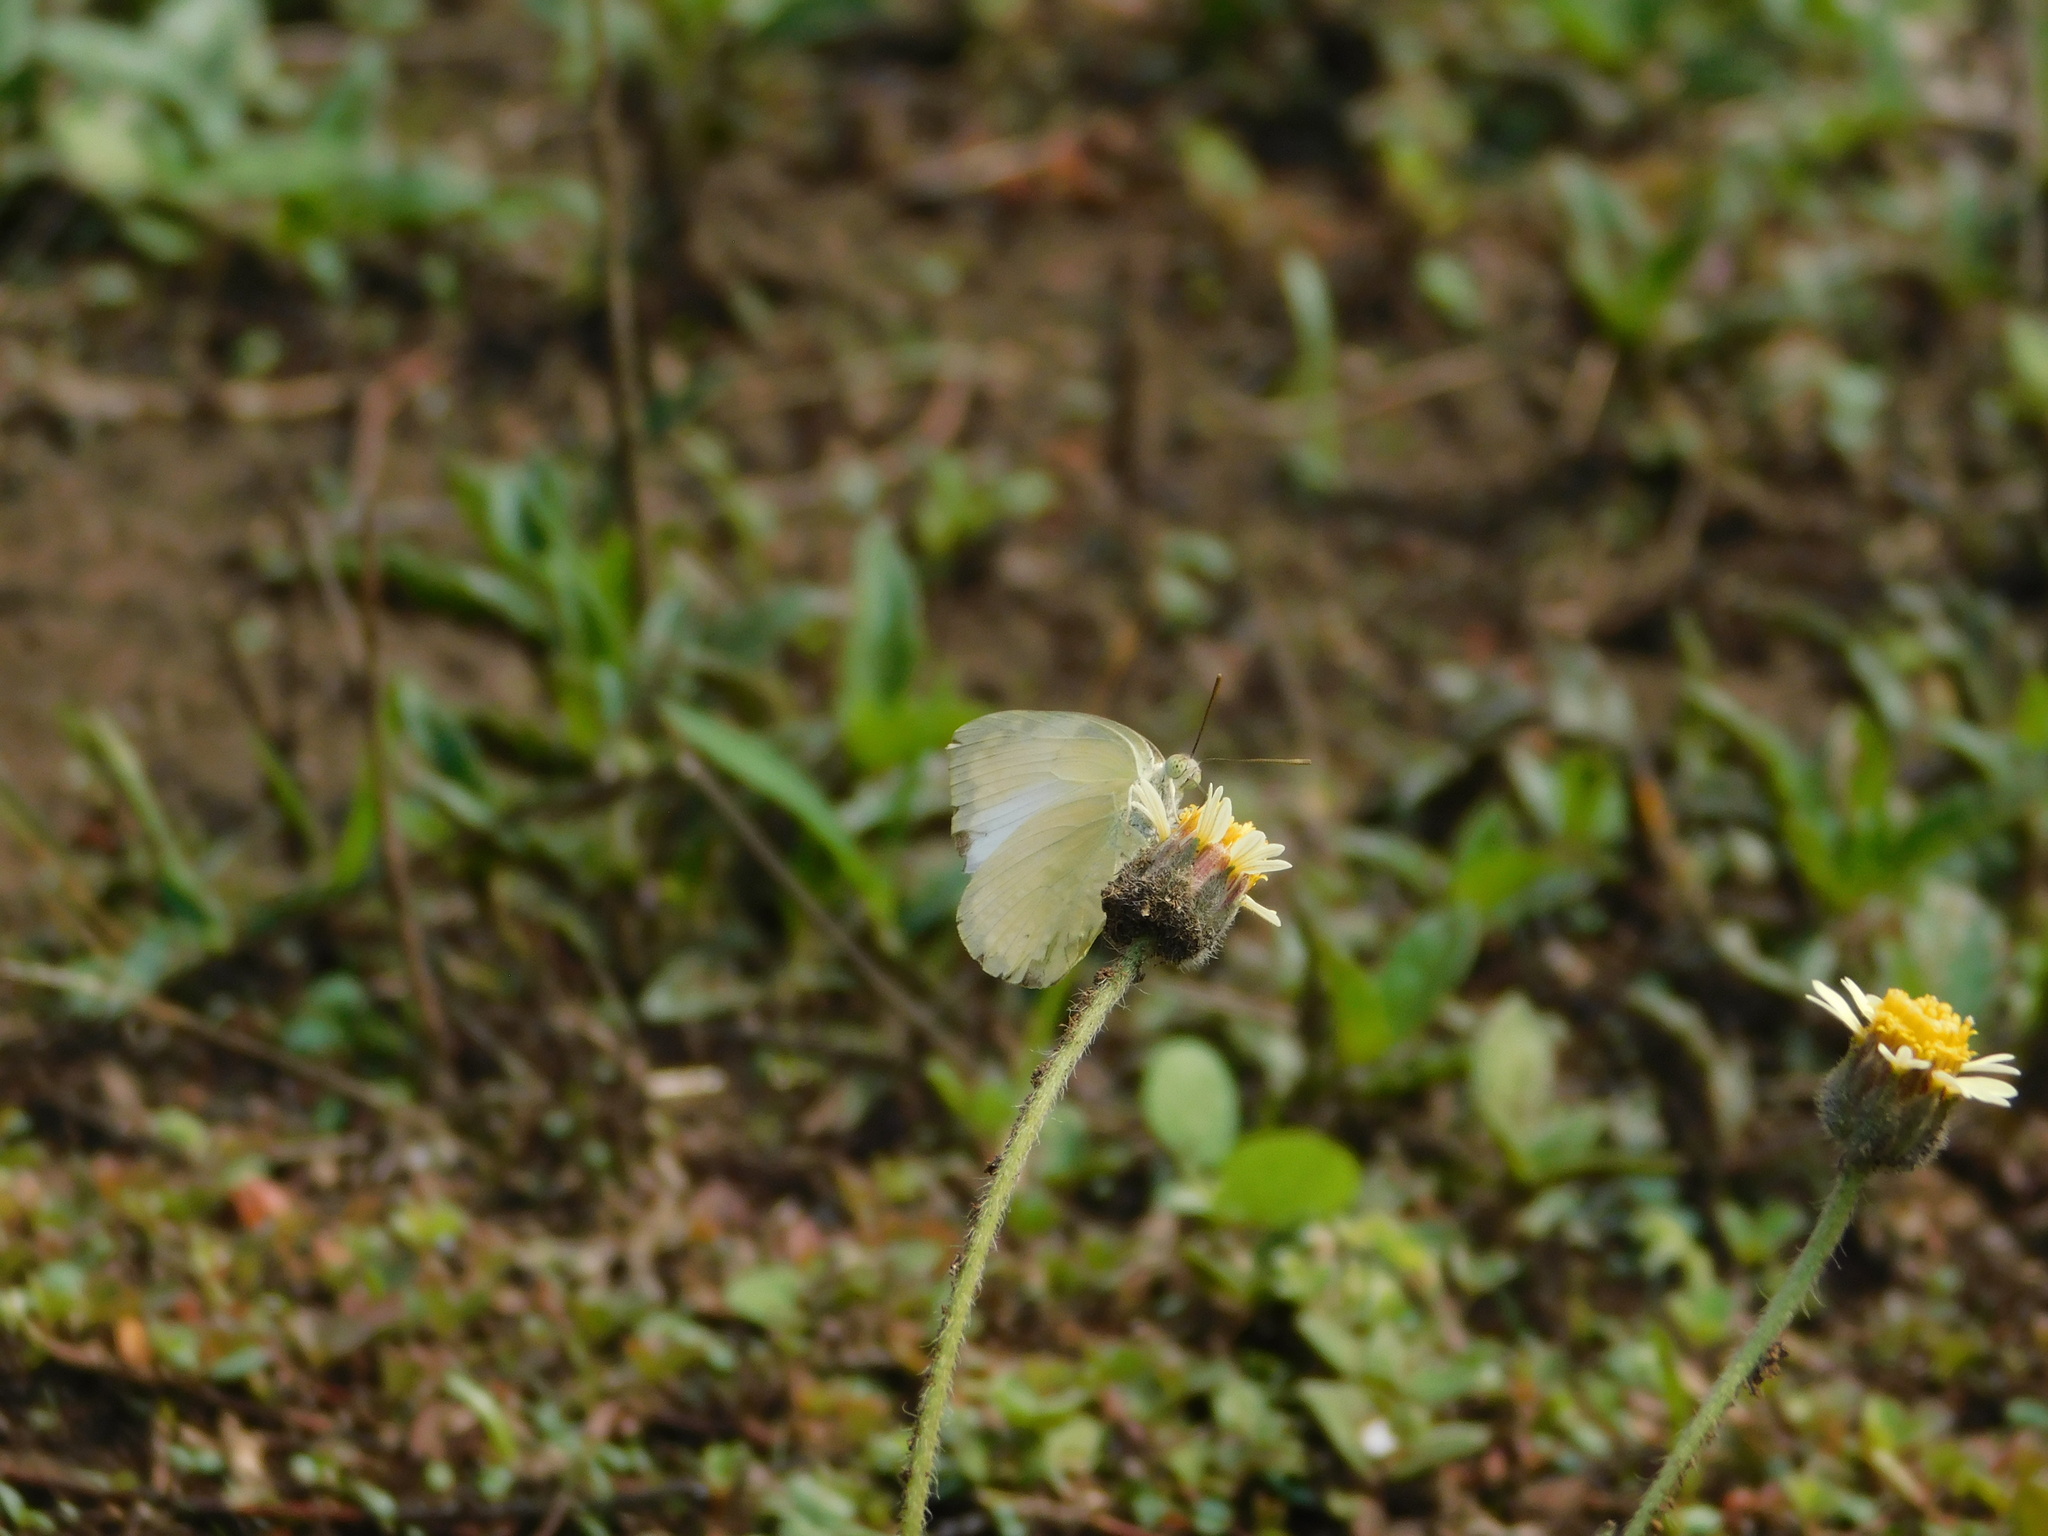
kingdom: Animalia
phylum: Arthropoda
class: Insecta
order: Lepidoptera
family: Pieridae
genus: Catopsilia
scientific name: Catopsilia pomona
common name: Common emigrant
